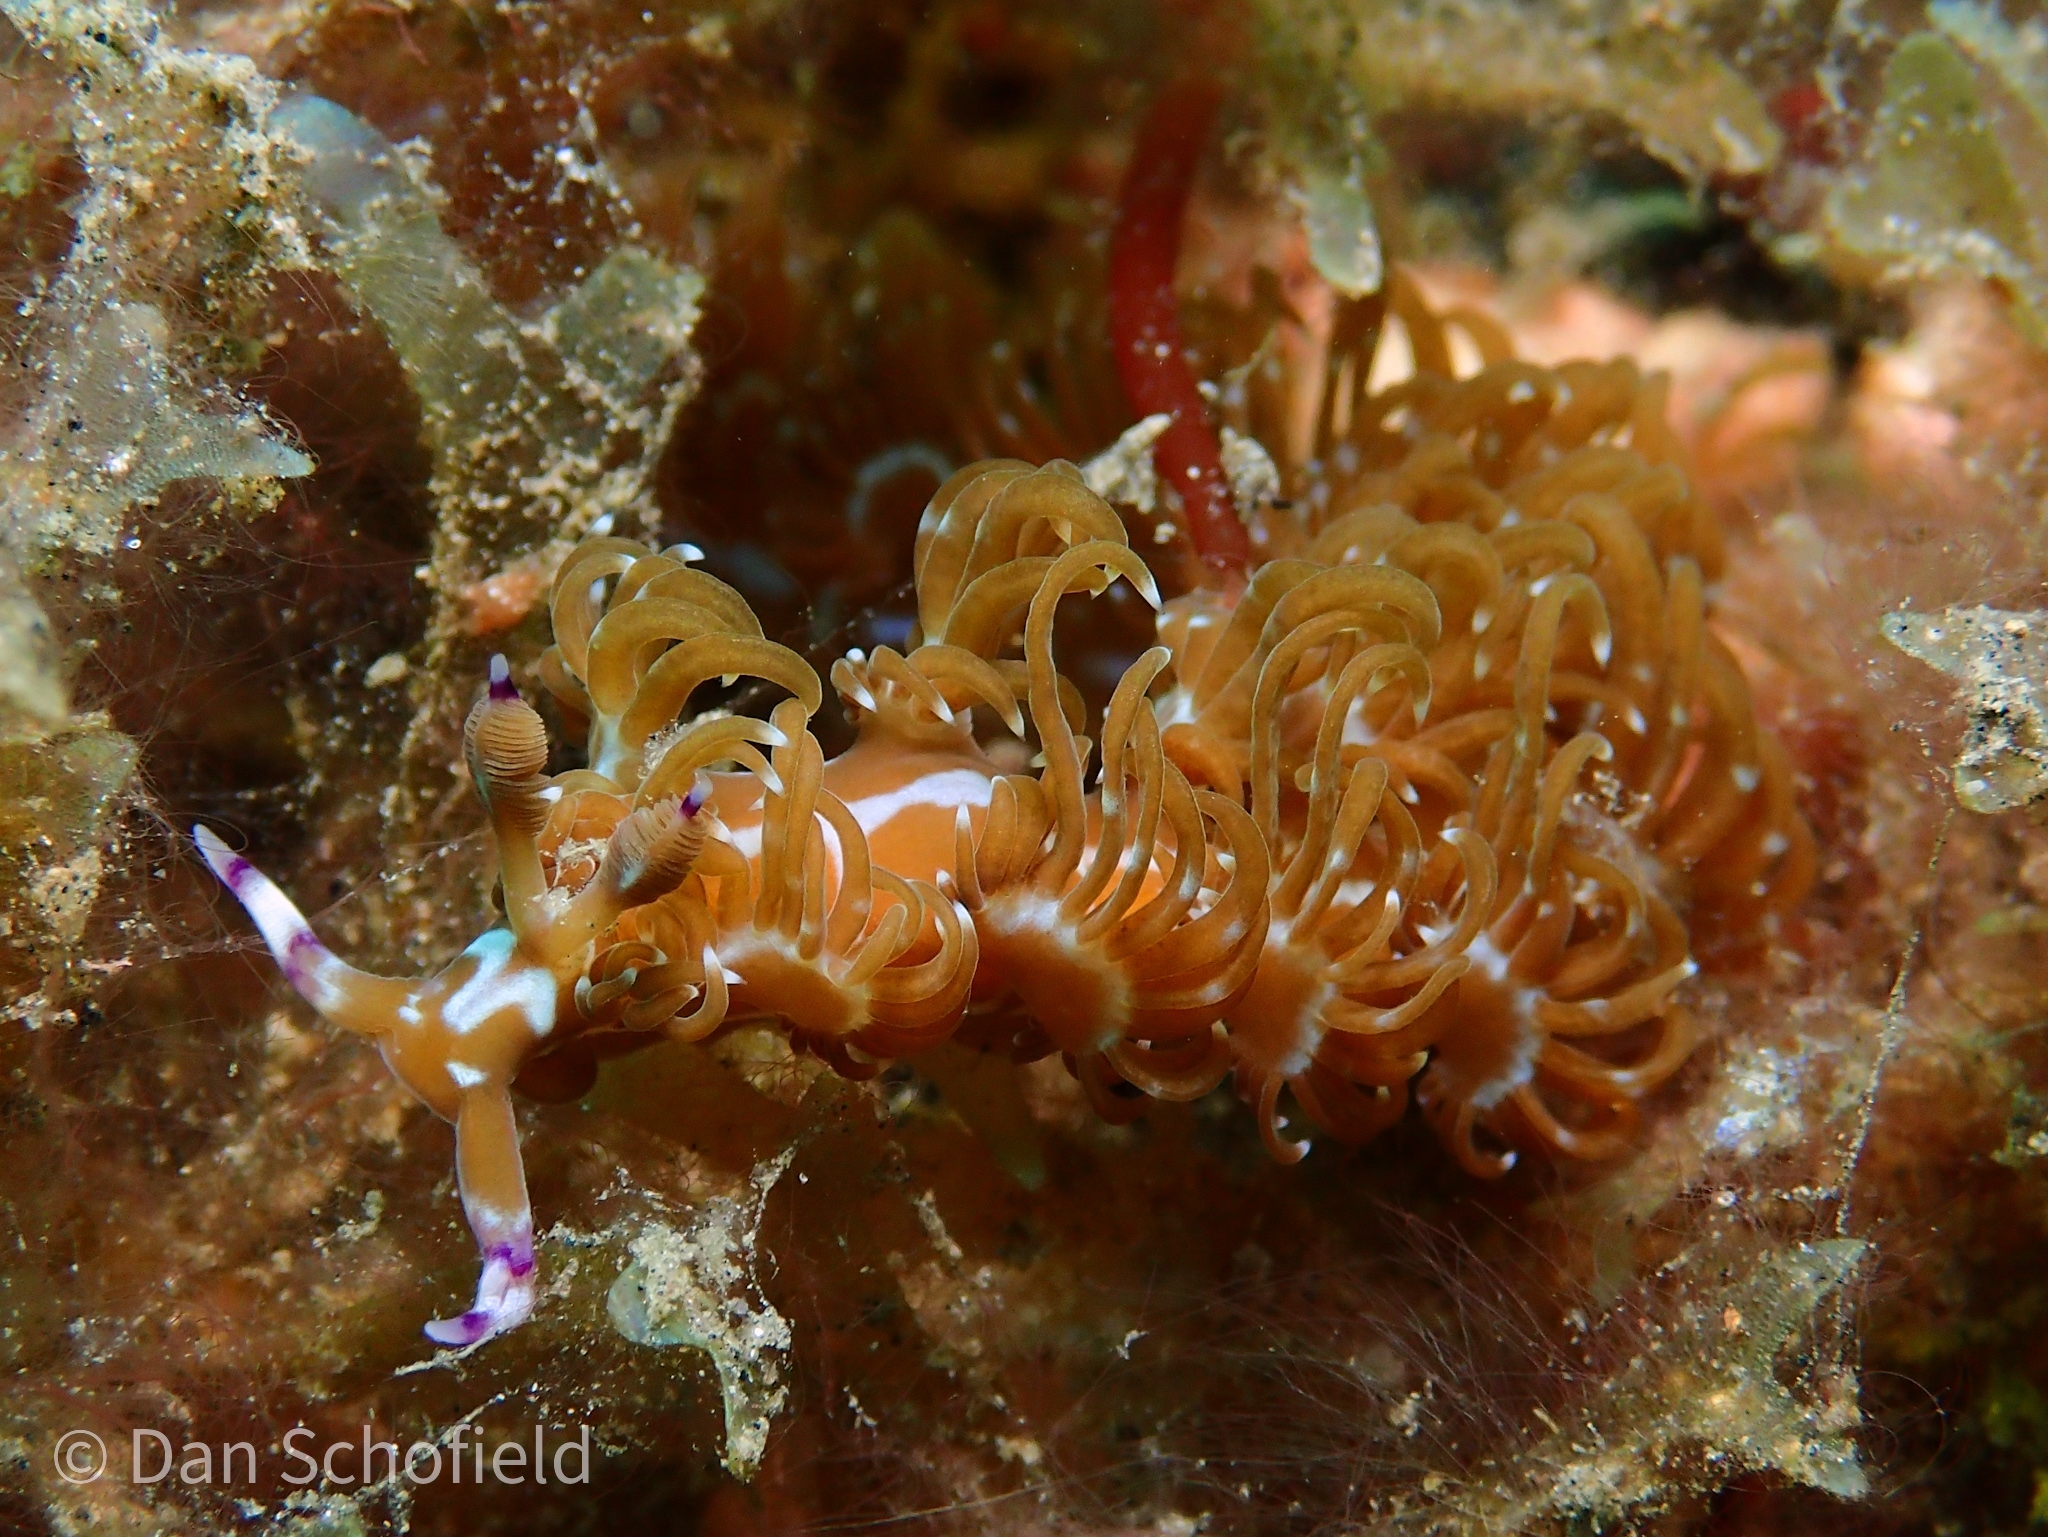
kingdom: Animalia
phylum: Mollusca
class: Gastropoda
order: Nudibranchia
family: Facelinidae
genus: Pteraeolidia
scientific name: Pteraeolidia semperi
